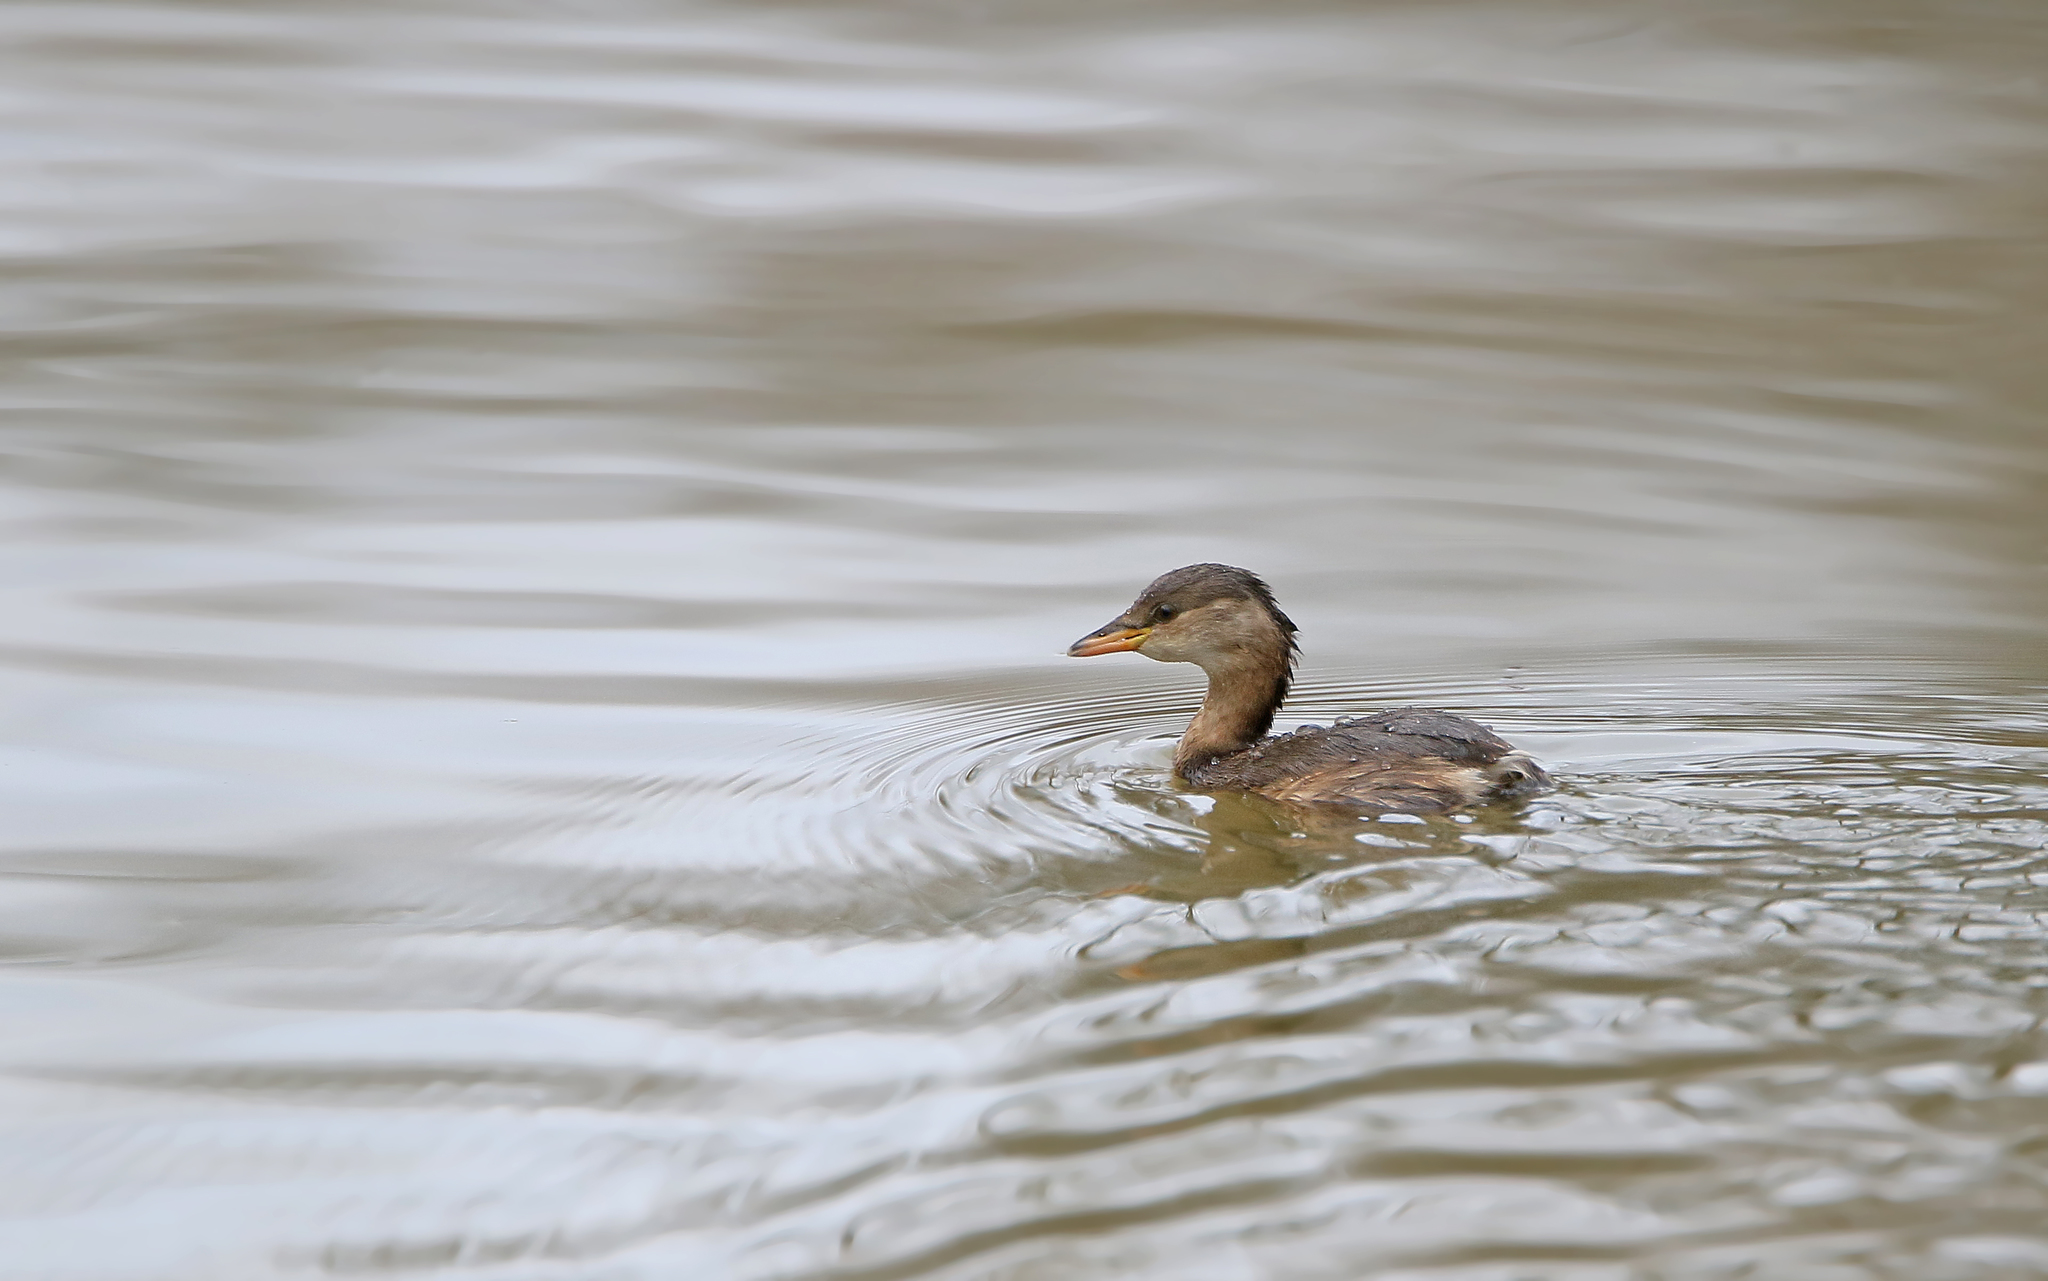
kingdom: Animalia
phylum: Chordata
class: Aves
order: Podicipediformes
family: Podicipedidae
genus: Tachybaptus
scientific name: Tachybaptus ruficollis
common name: Little grebe
